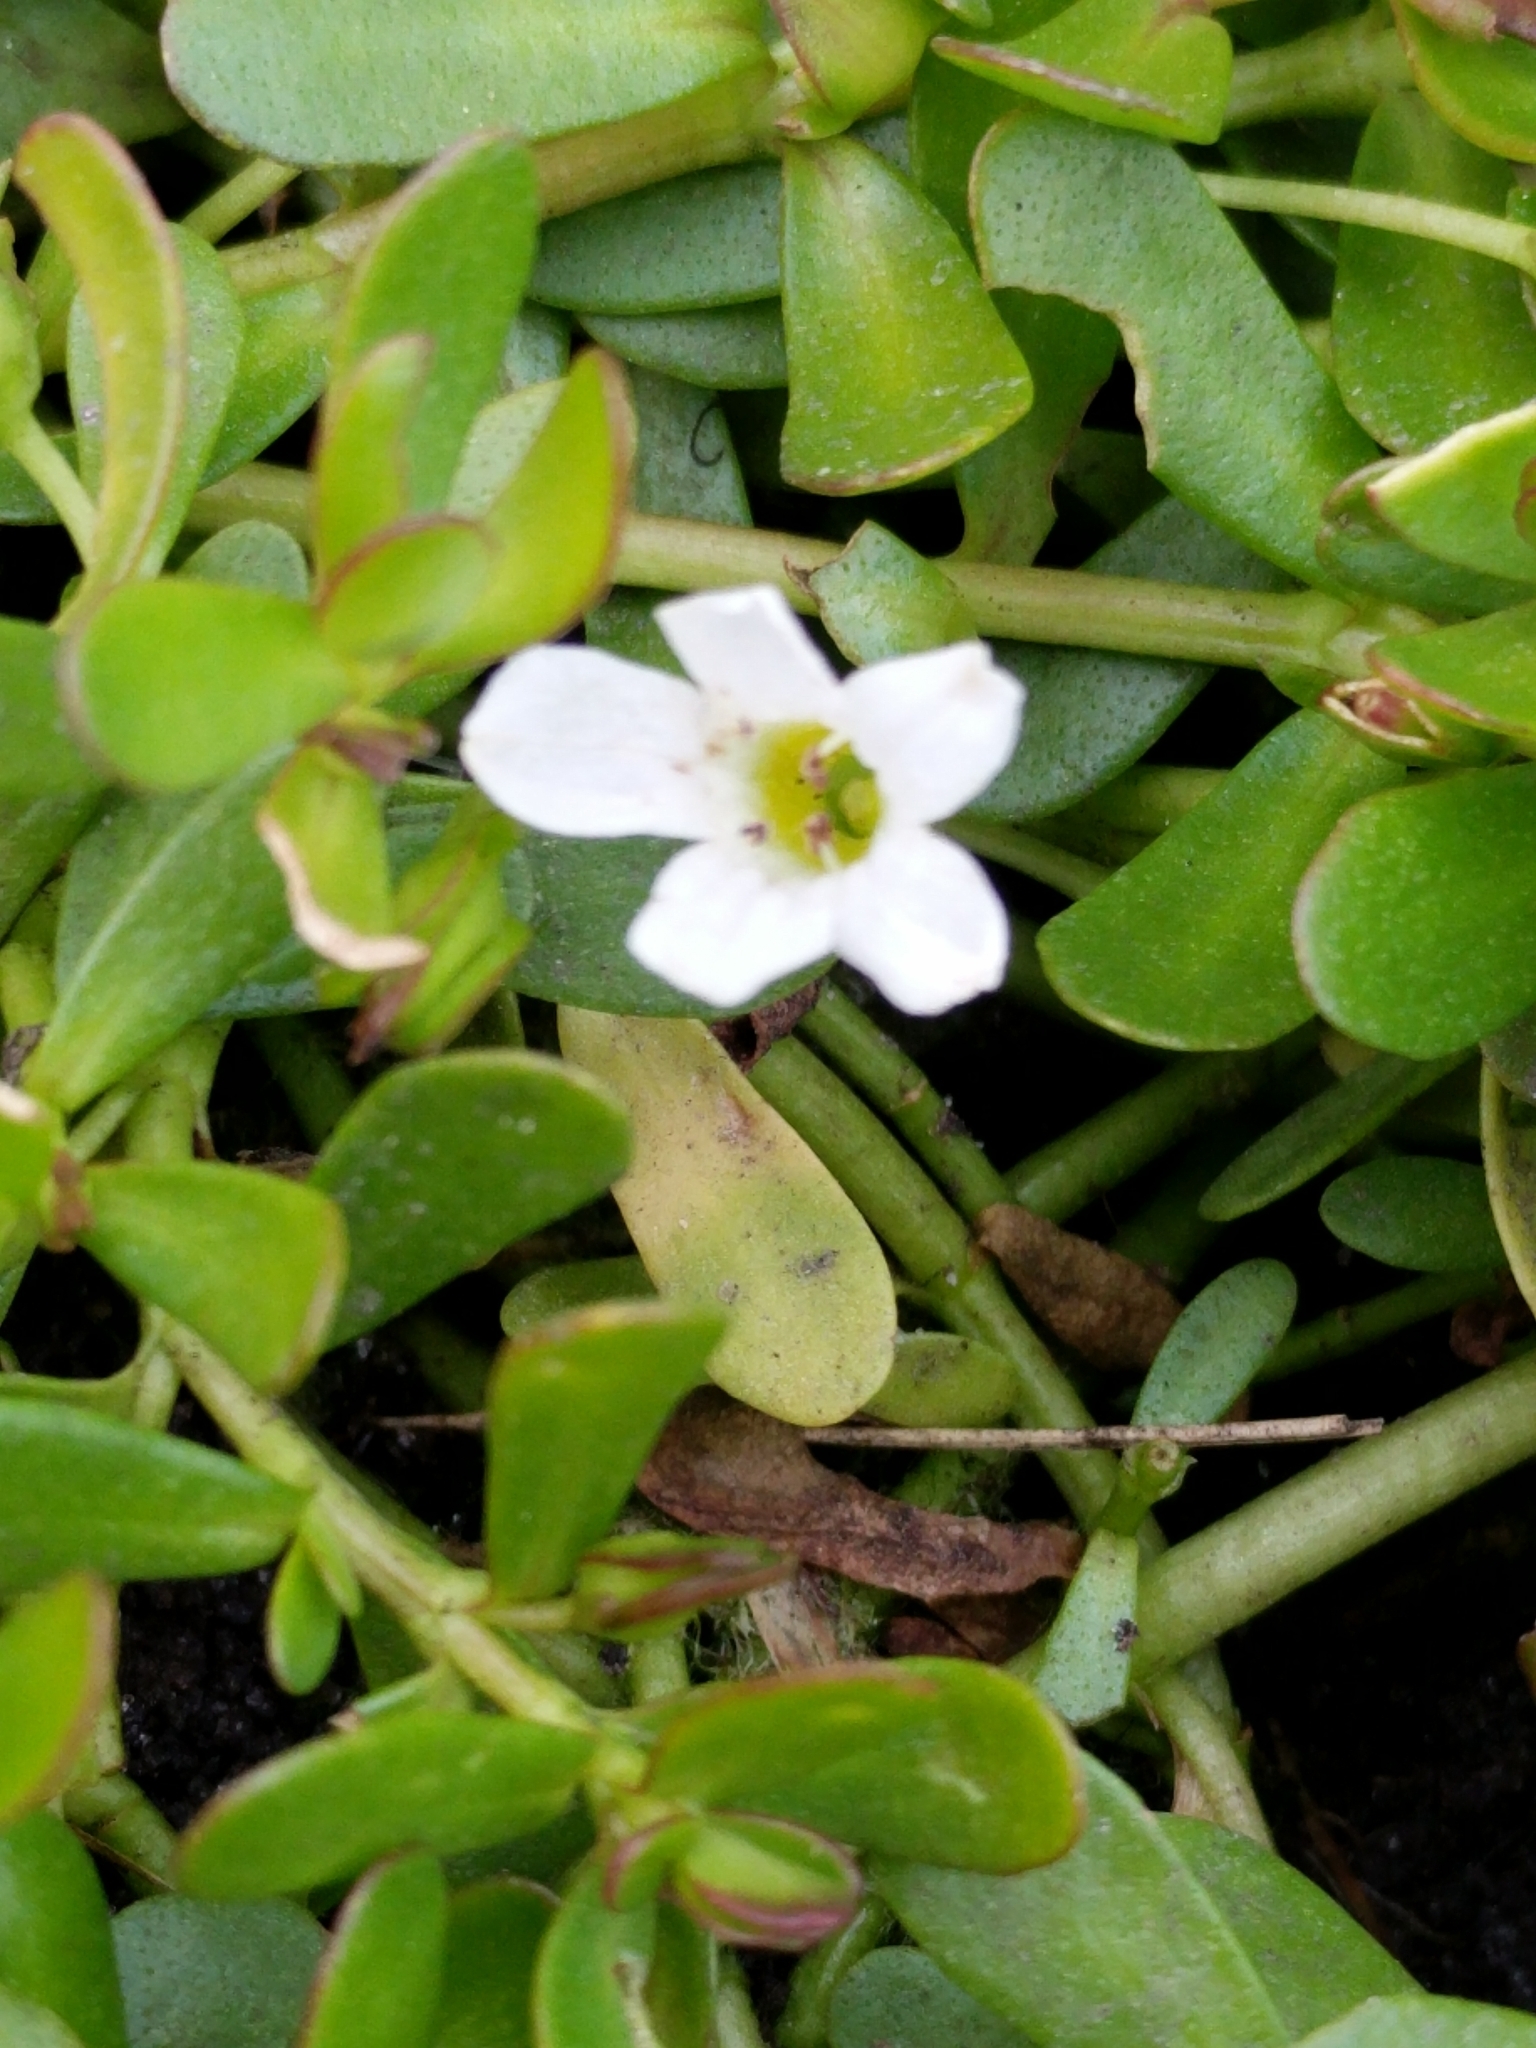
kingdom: Plantae
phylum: Tracheophyta
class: Magnoliopsida
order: Lamiales
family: Plantaginaceae
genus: Bacopa
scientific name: Bacopa monnieri
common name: Indian-pennywort
